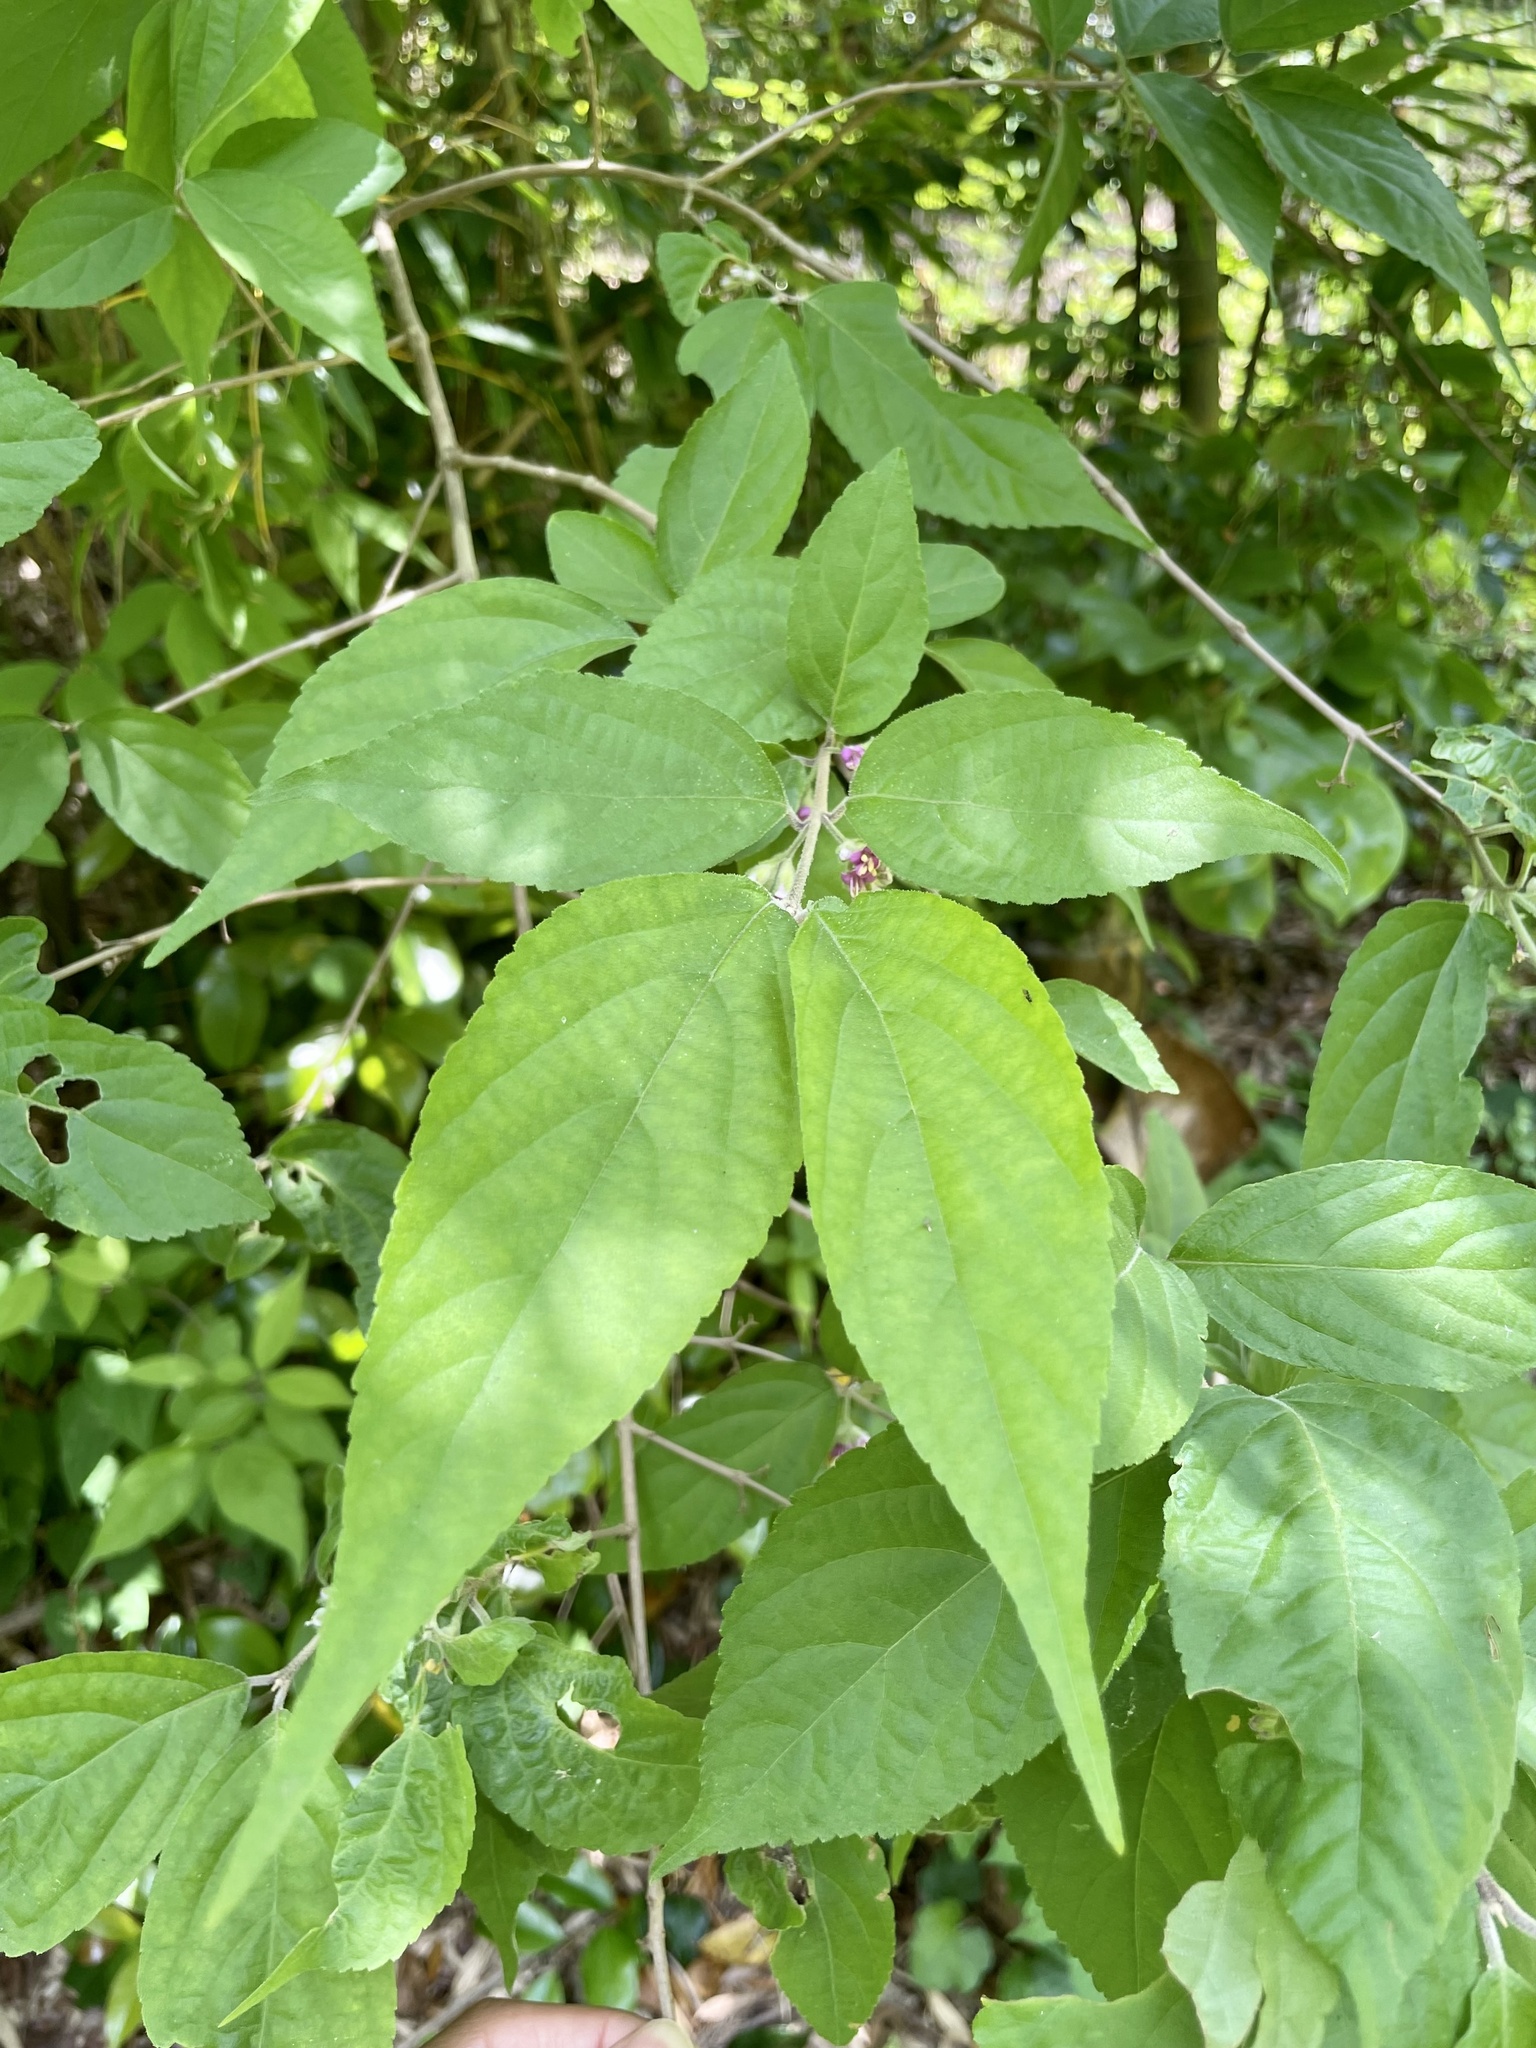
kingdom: Plantae
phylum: Tracheophyta
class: Magnoliopsida
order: Lamiales
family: Lamiaceae
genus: Callicarpa
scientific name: Callicarpa mollis
